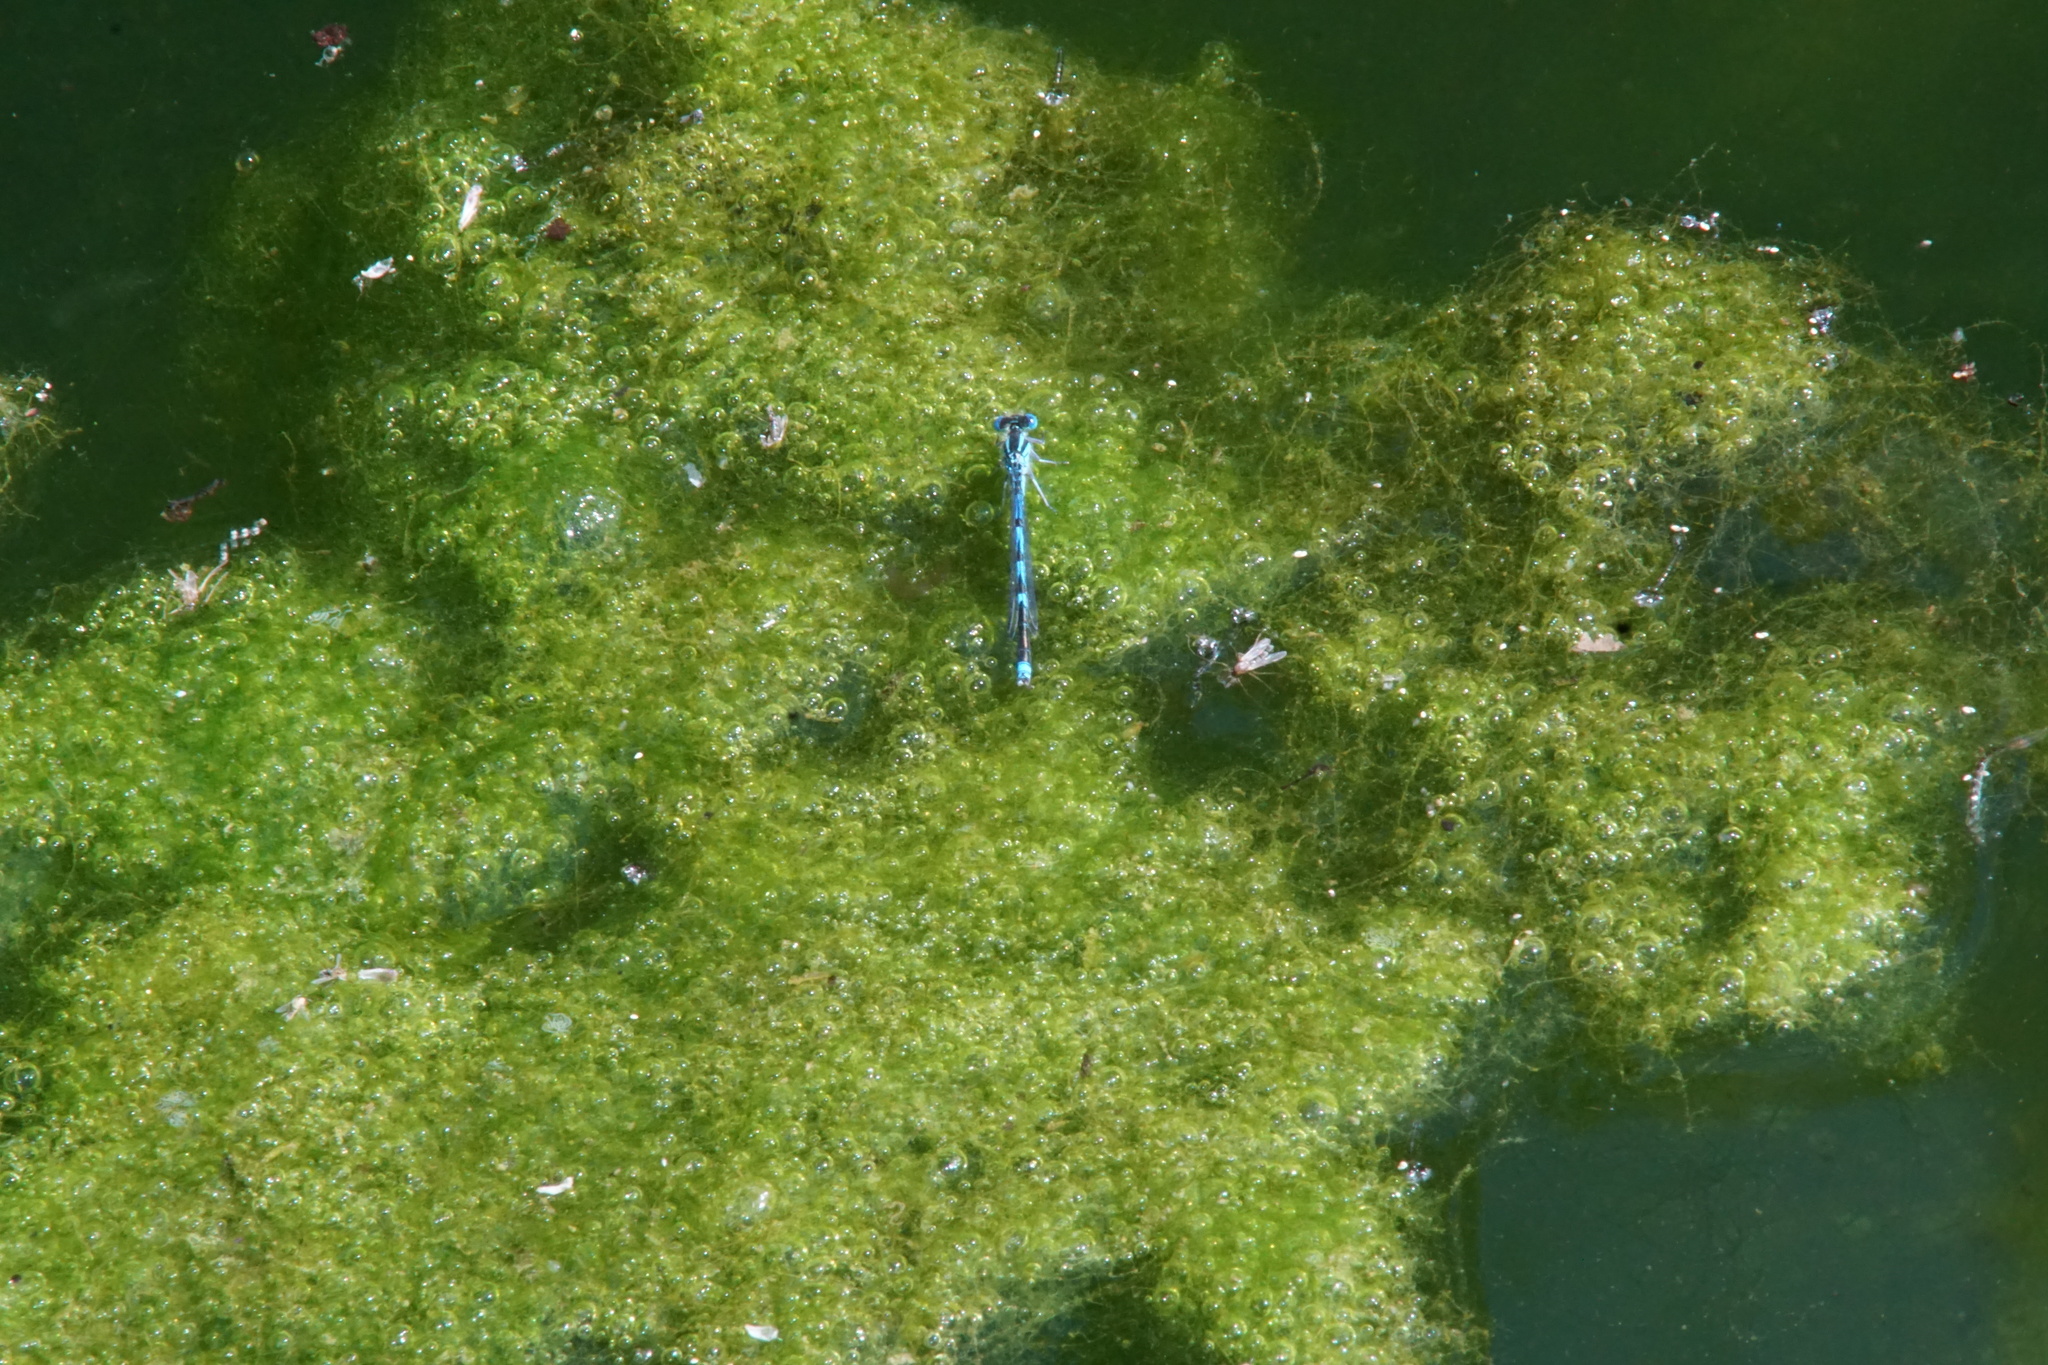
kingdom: Animalia
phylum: Arthropoda
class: Insecta
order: Odonata
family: Coenagrionidae
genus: Erythromma
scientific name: Erythromma lindenii
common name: Blue-eye
